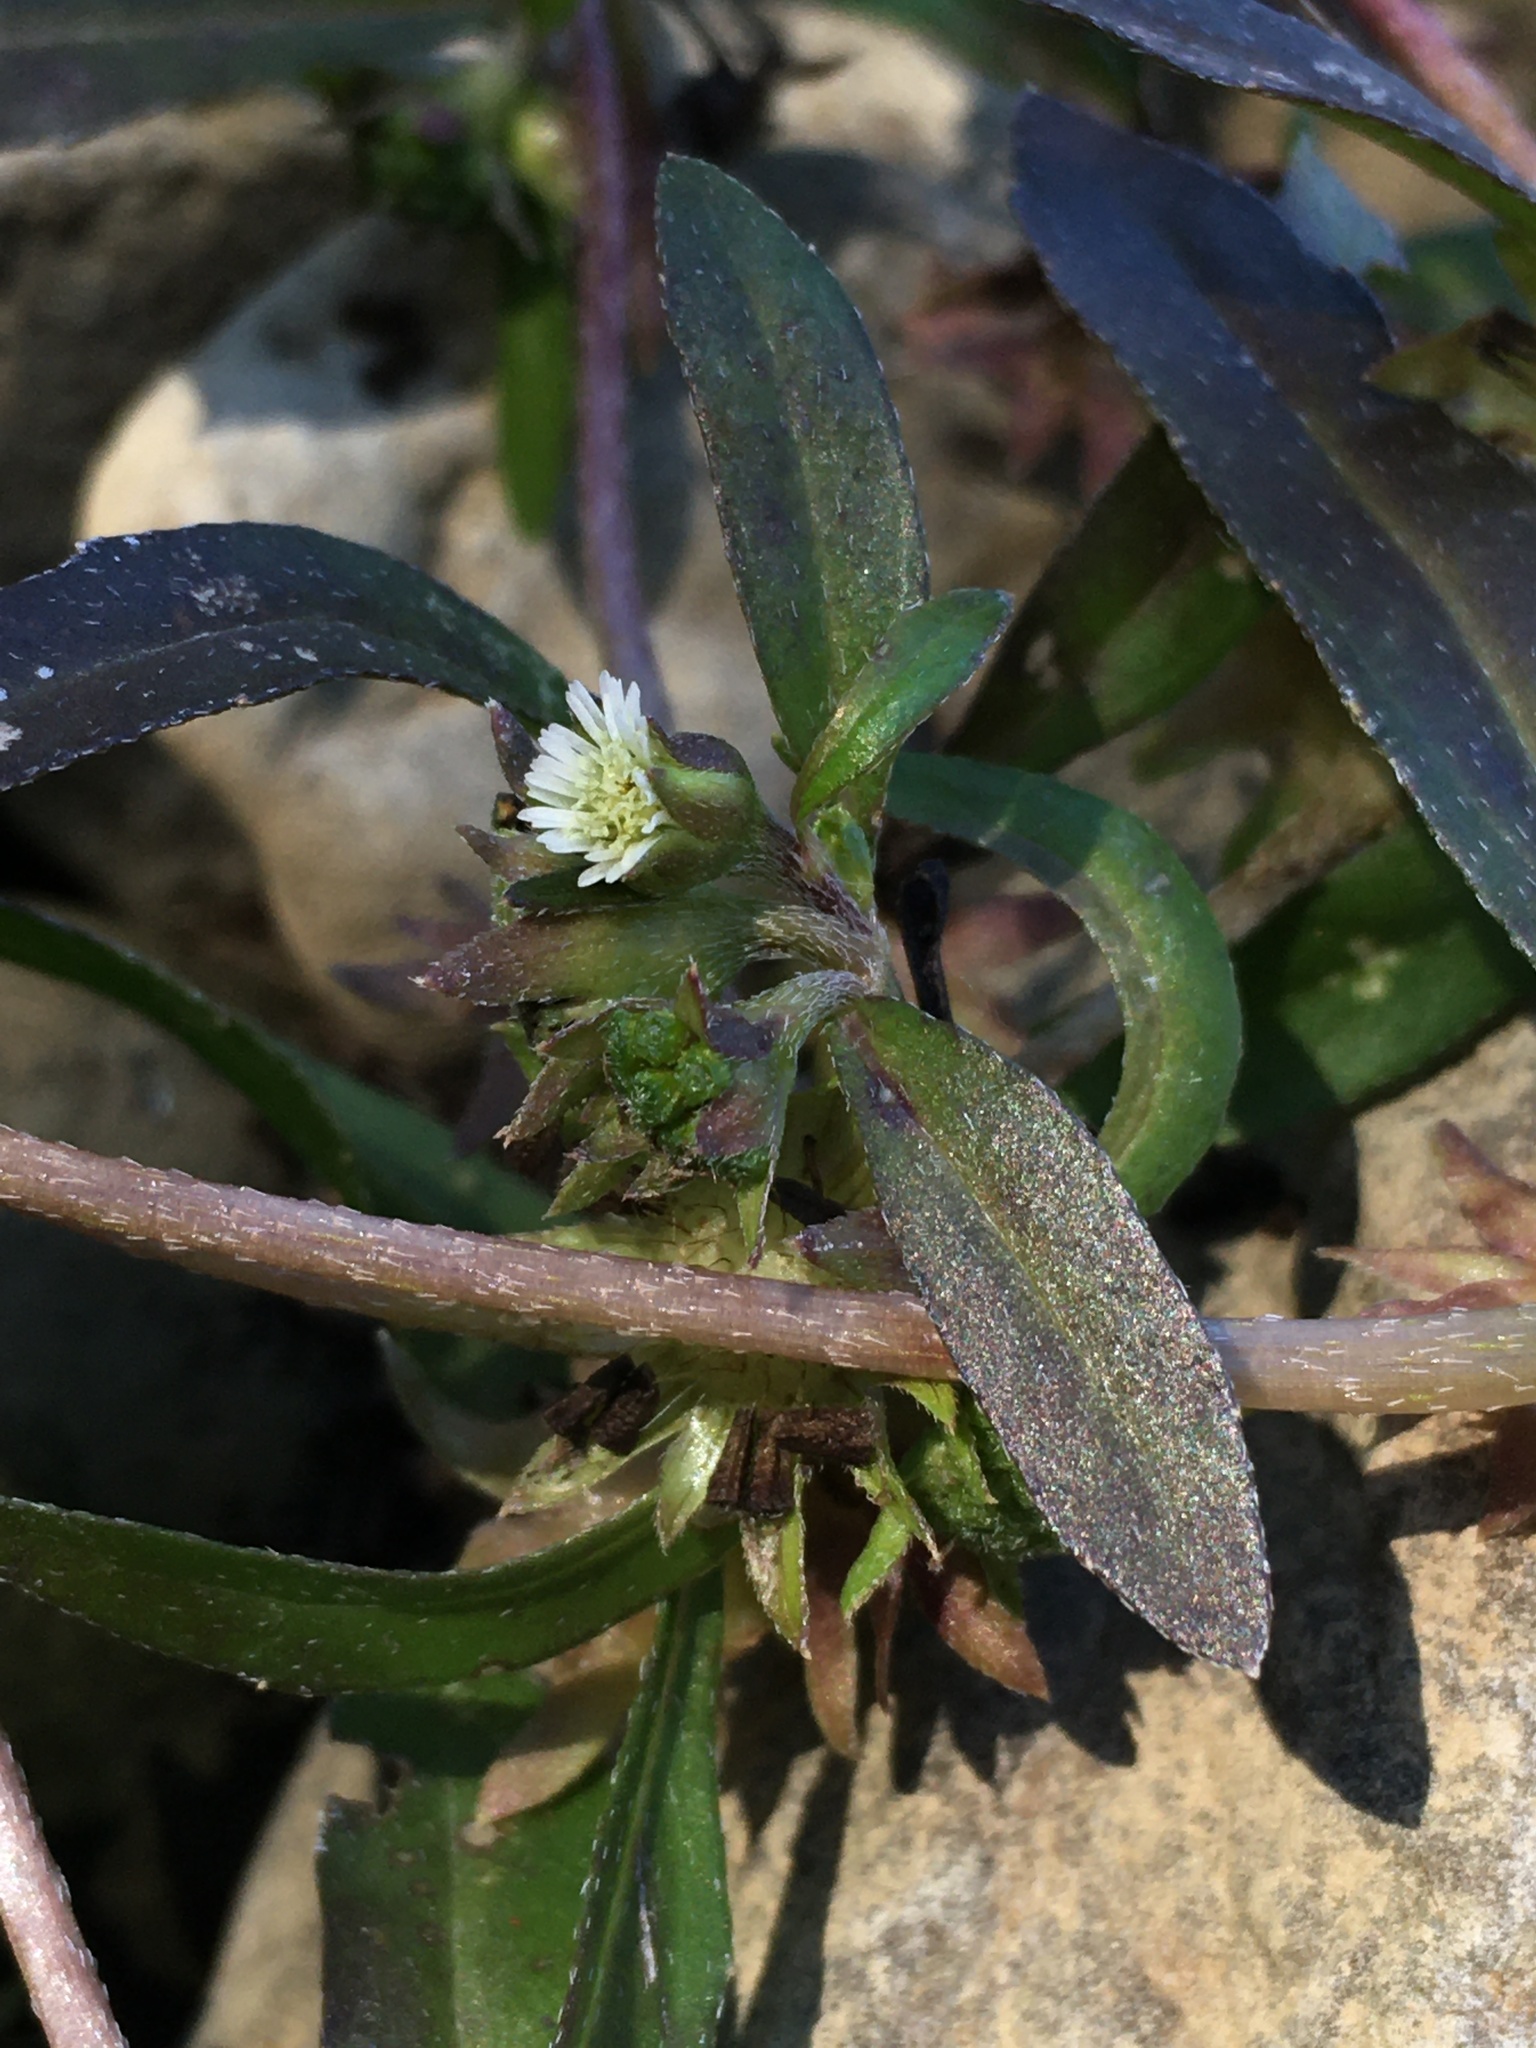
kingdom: Plantae
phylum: Tracheophyta
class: Magnoliopsida
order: Asterales
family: Asteraceae
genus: Eclipta
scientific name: Eclipta prostrata
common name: False daisy
